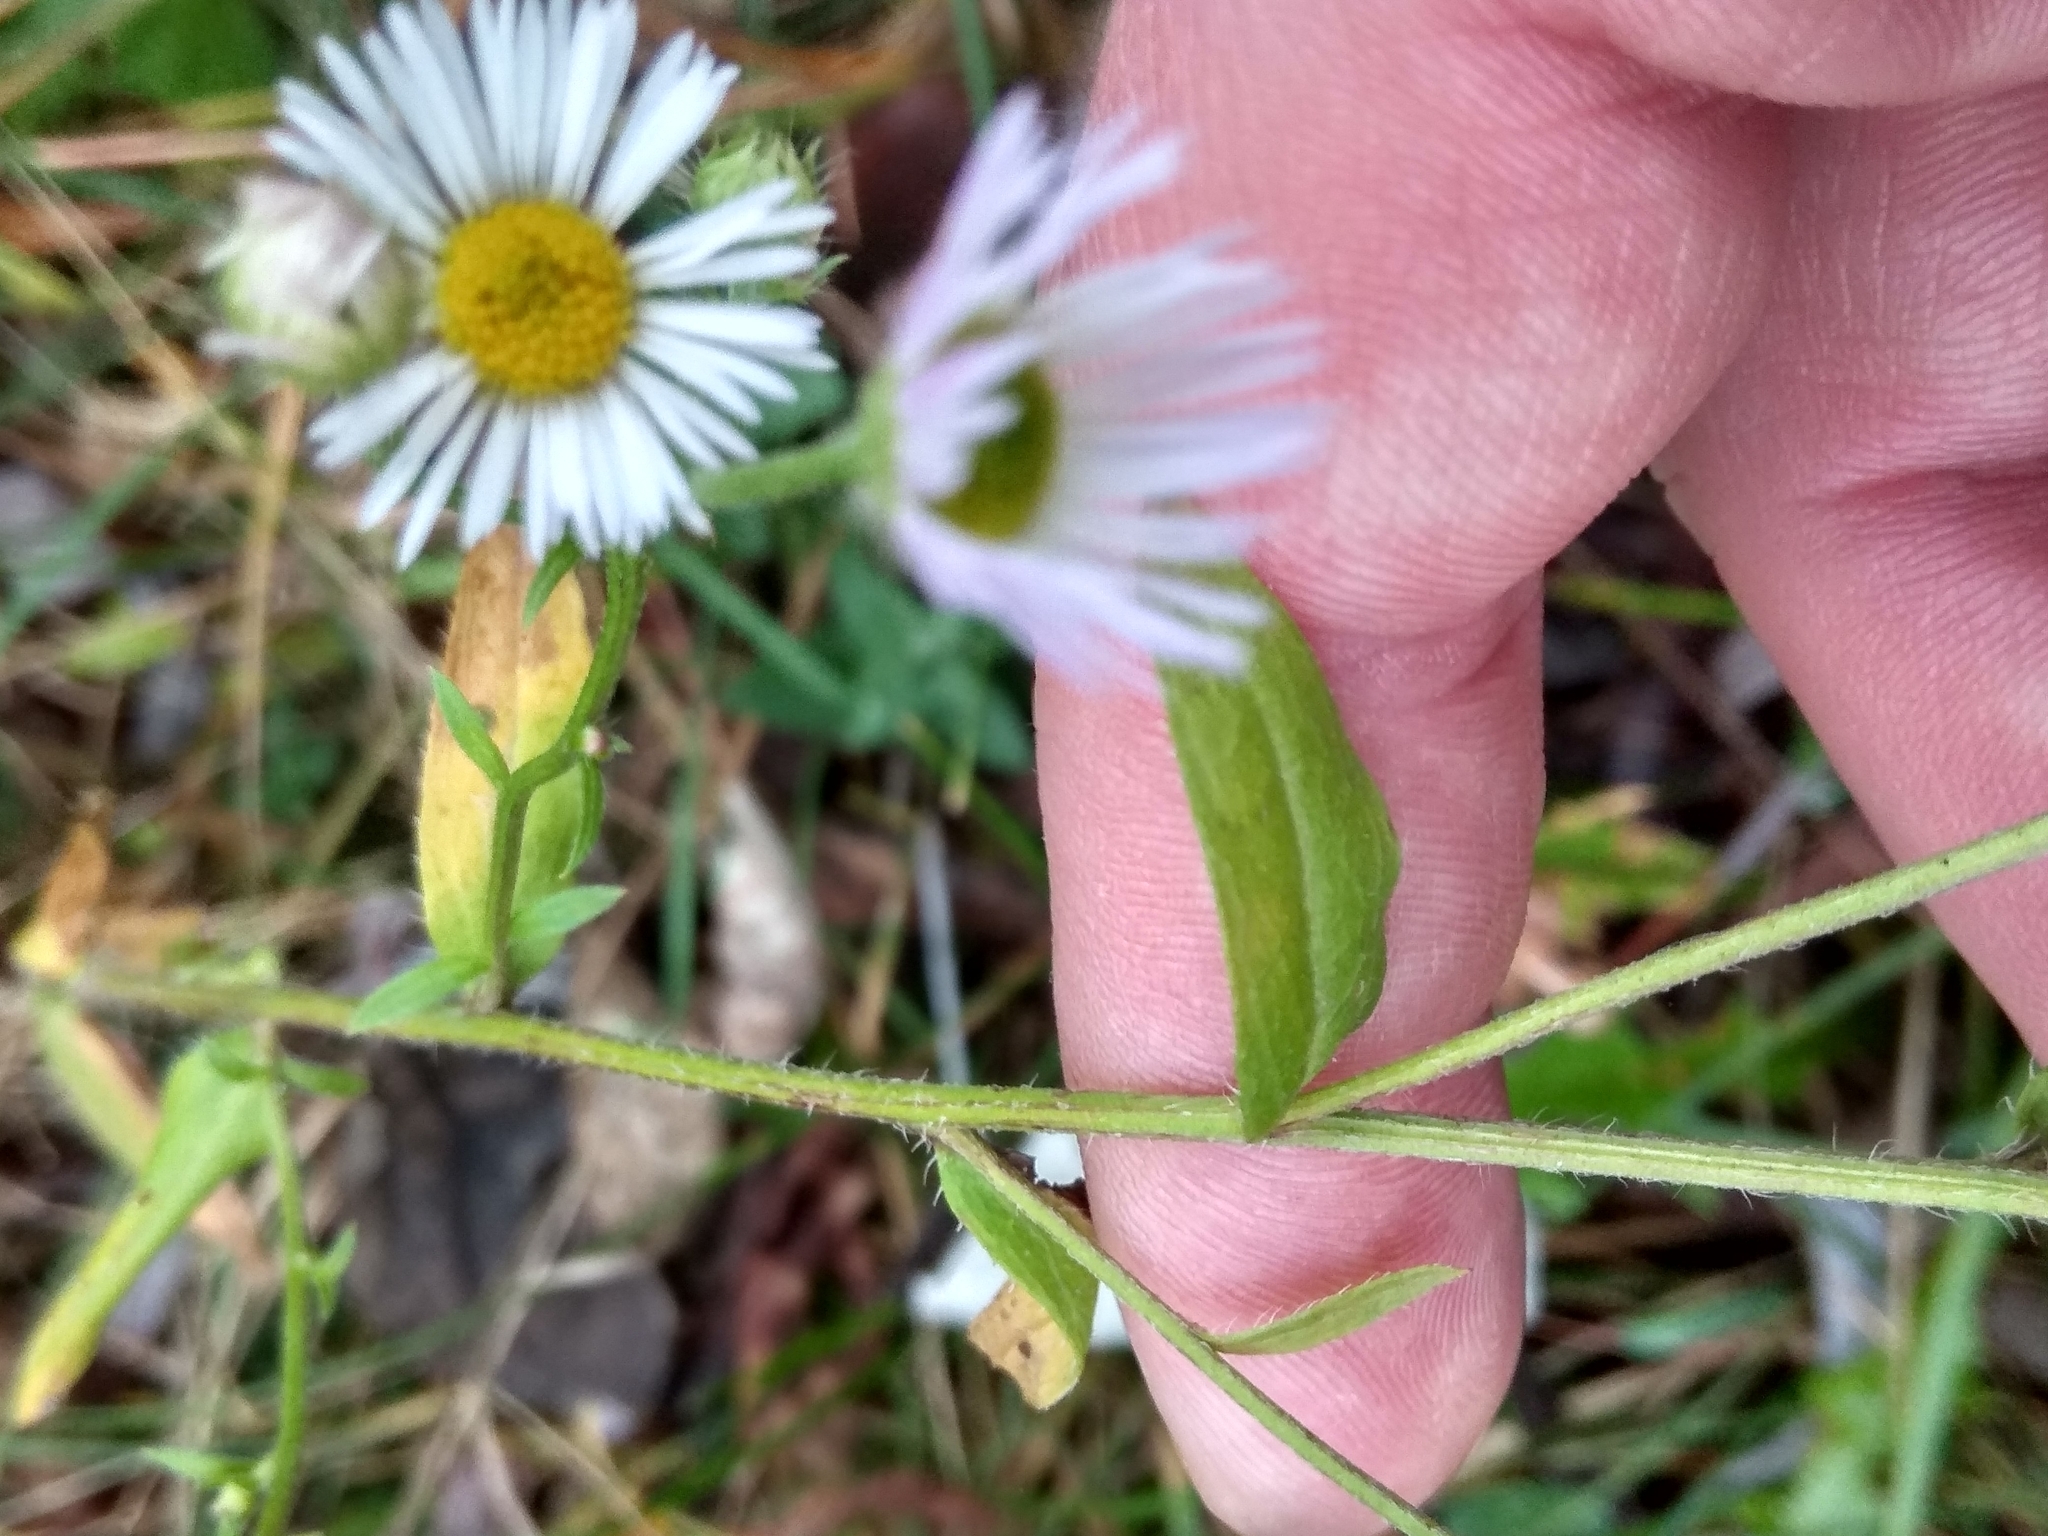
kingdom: Plantae
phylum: Tracheophyta
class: Magnoliopsida
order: Asterales
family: Asteraceae
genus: Erigeron
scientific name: Erigeron annuus
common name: Tall fleabane
